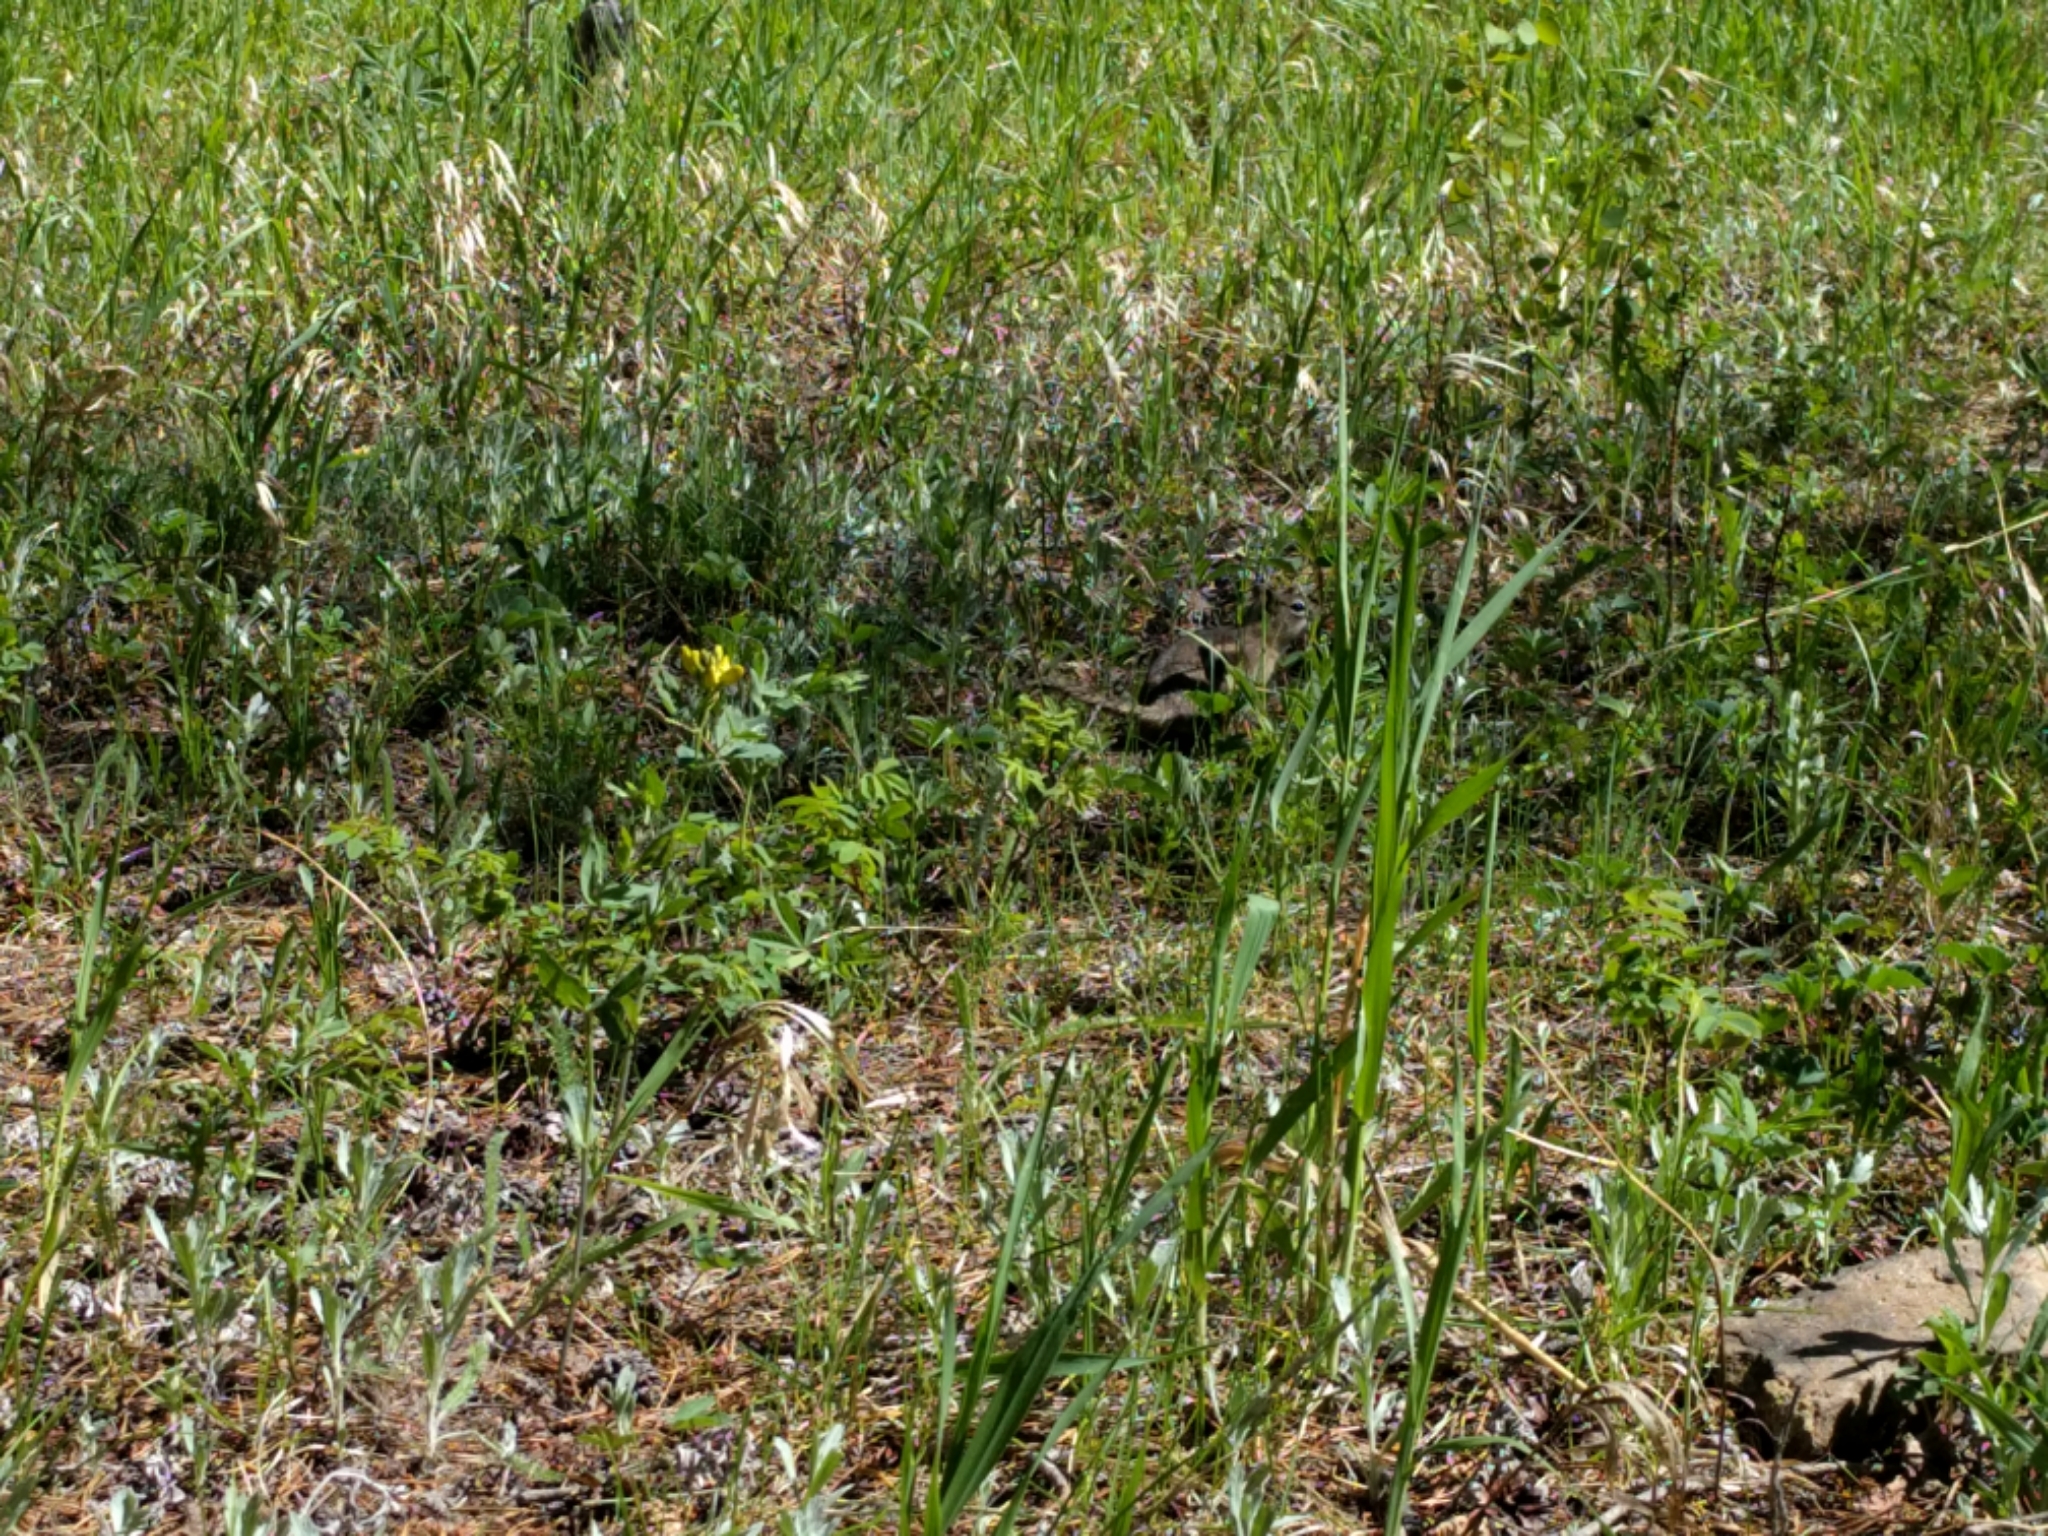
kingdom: Animalia
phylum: Chordata
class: Mammalia
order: Rodentia
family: Sciuridae
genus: Callospermophilus
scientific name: Callospermophilus lateralis
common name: Golden-mantled ground squirrel
